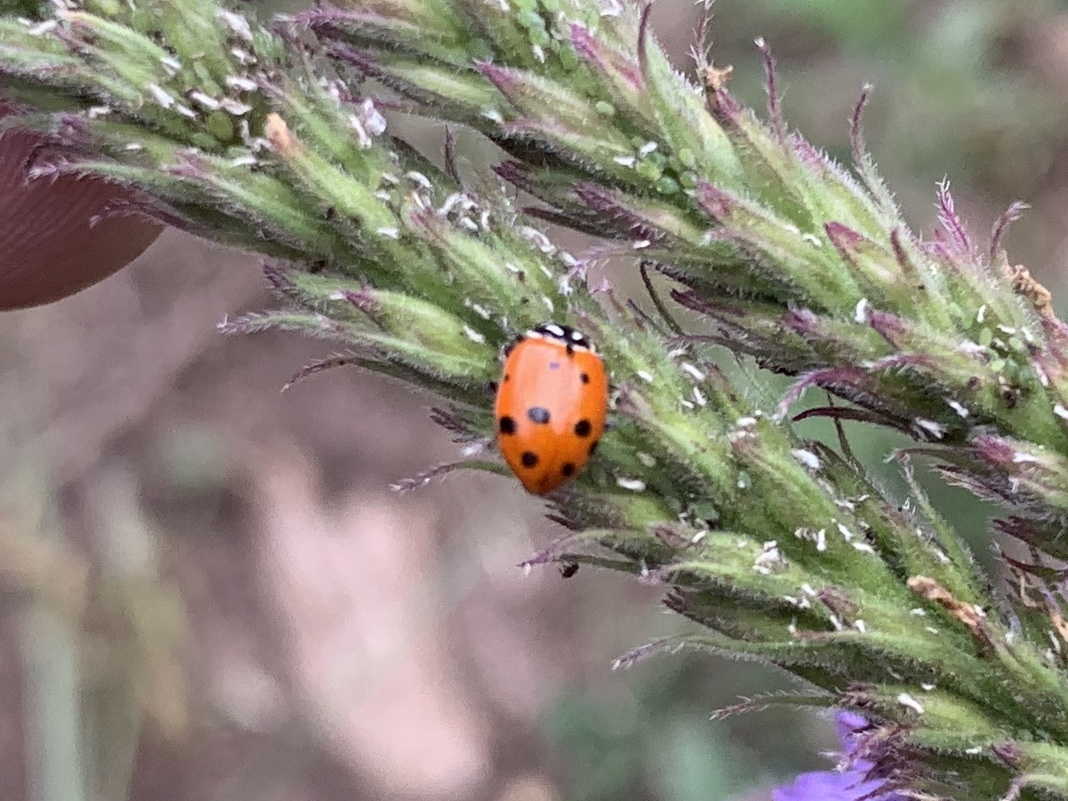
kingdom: Animalia
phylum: Arthropoda
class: Insecta
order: Coleoptera
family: Coccinellidae
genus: Hippodamia
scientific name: Hippodamia convergens
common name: Convergent lady beetle
